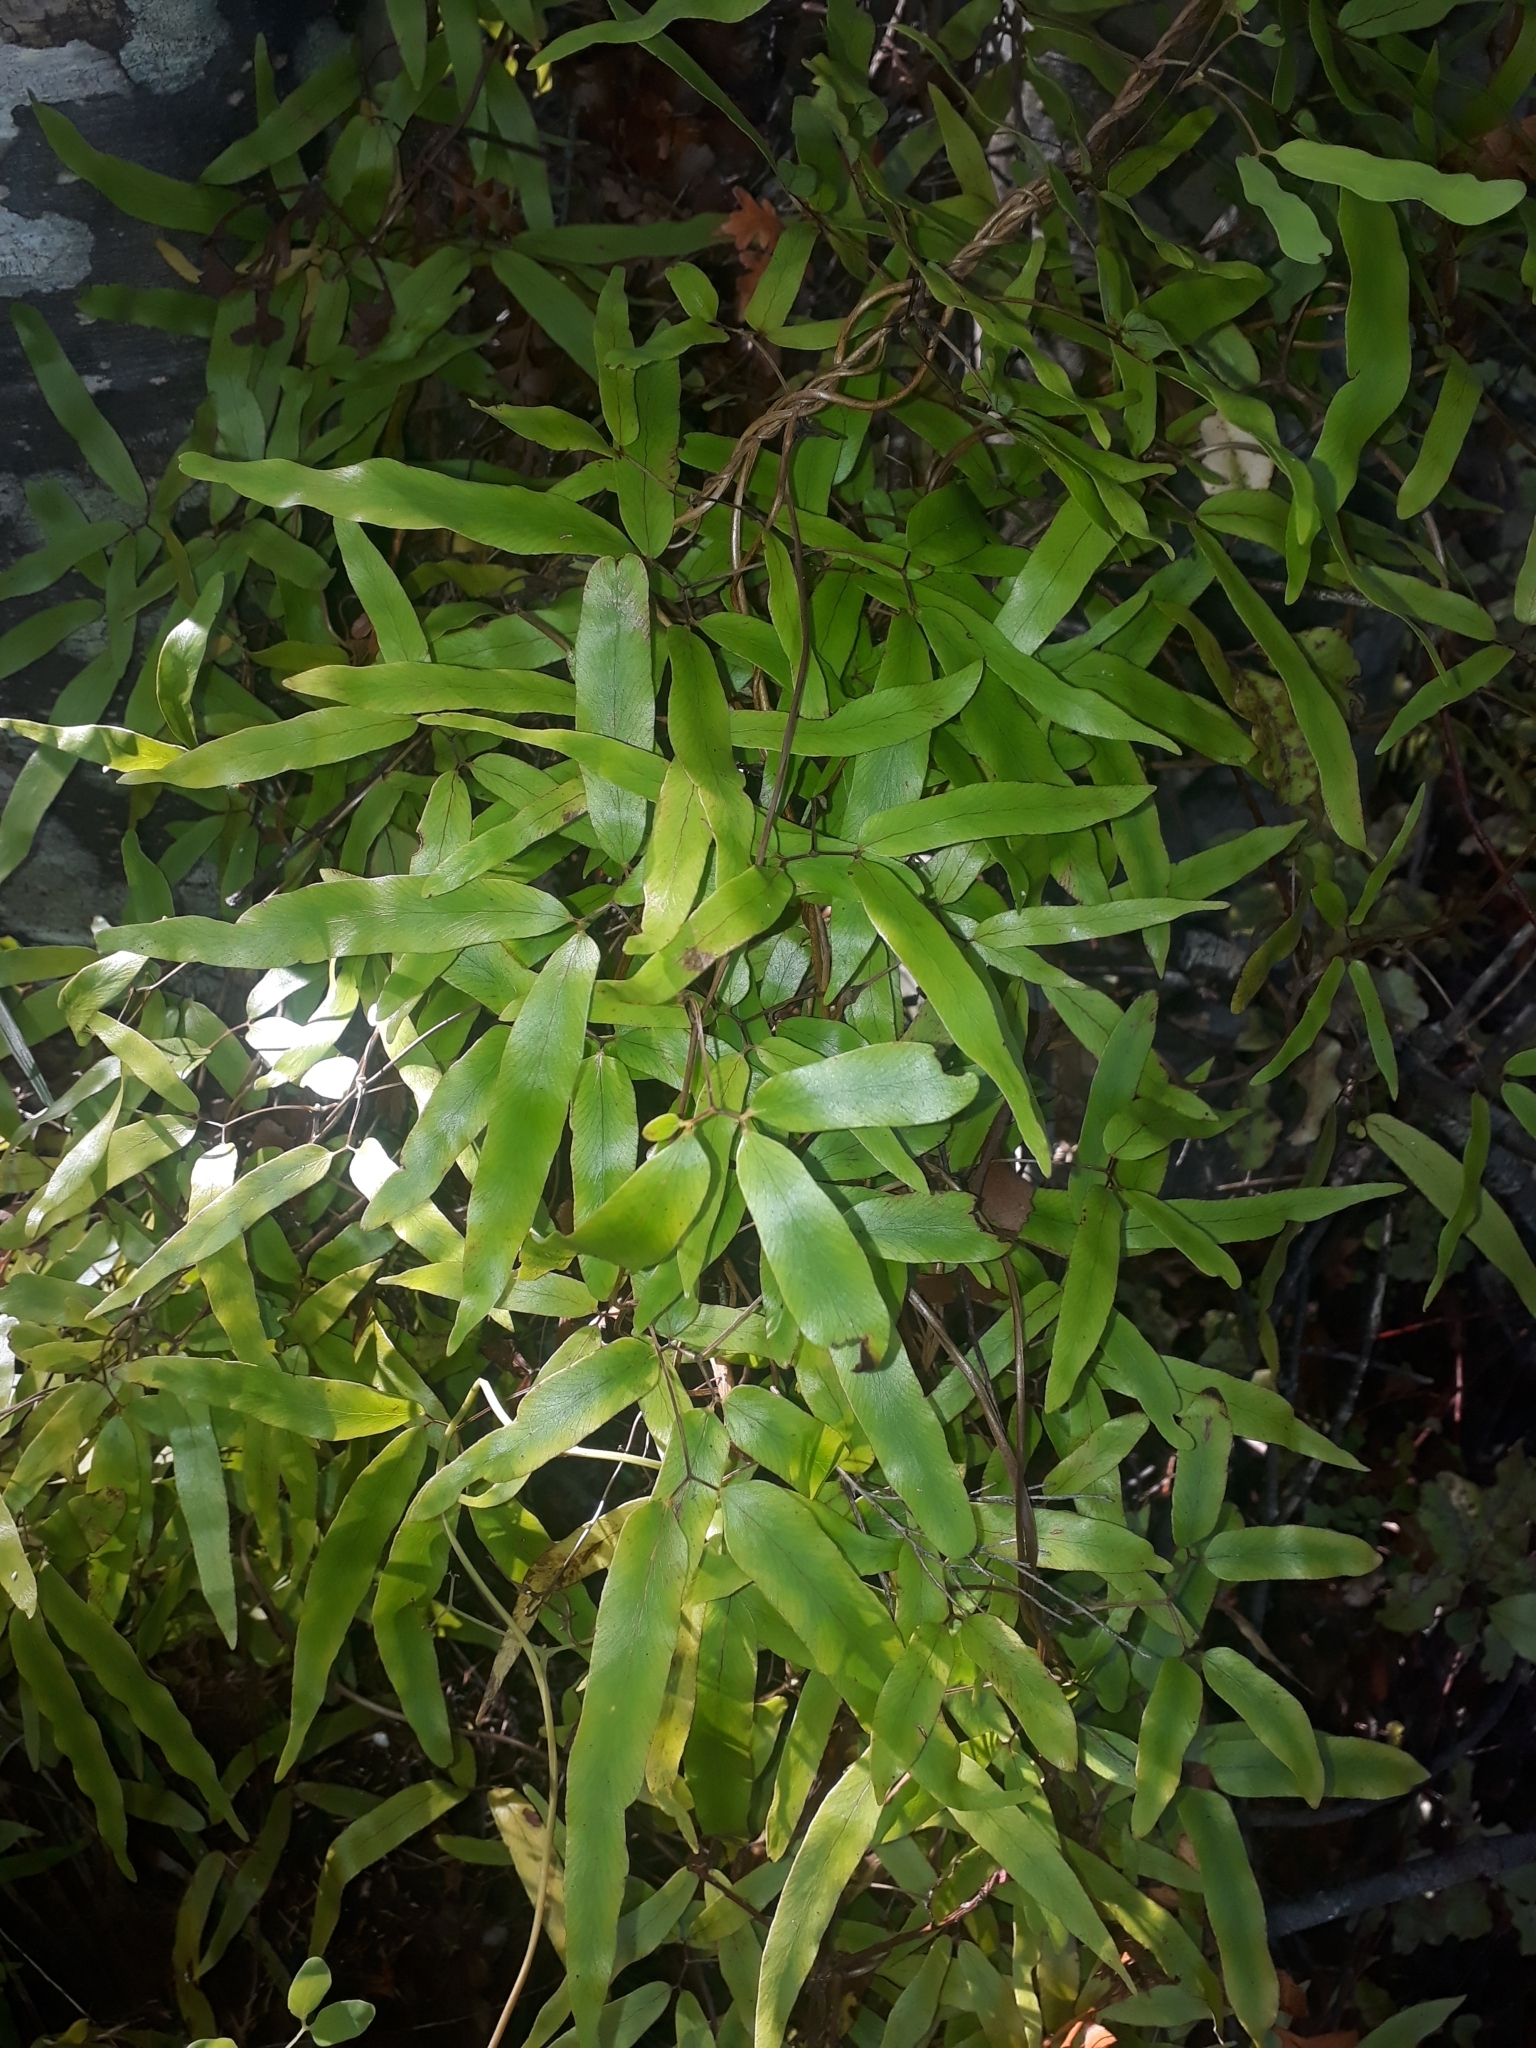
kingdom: Plantae
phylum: Tracheophyta
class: Polypodiopsida
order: Schizaeales
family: Lygodiaceae
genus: Lygodium
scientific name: Lygodium articulatum
